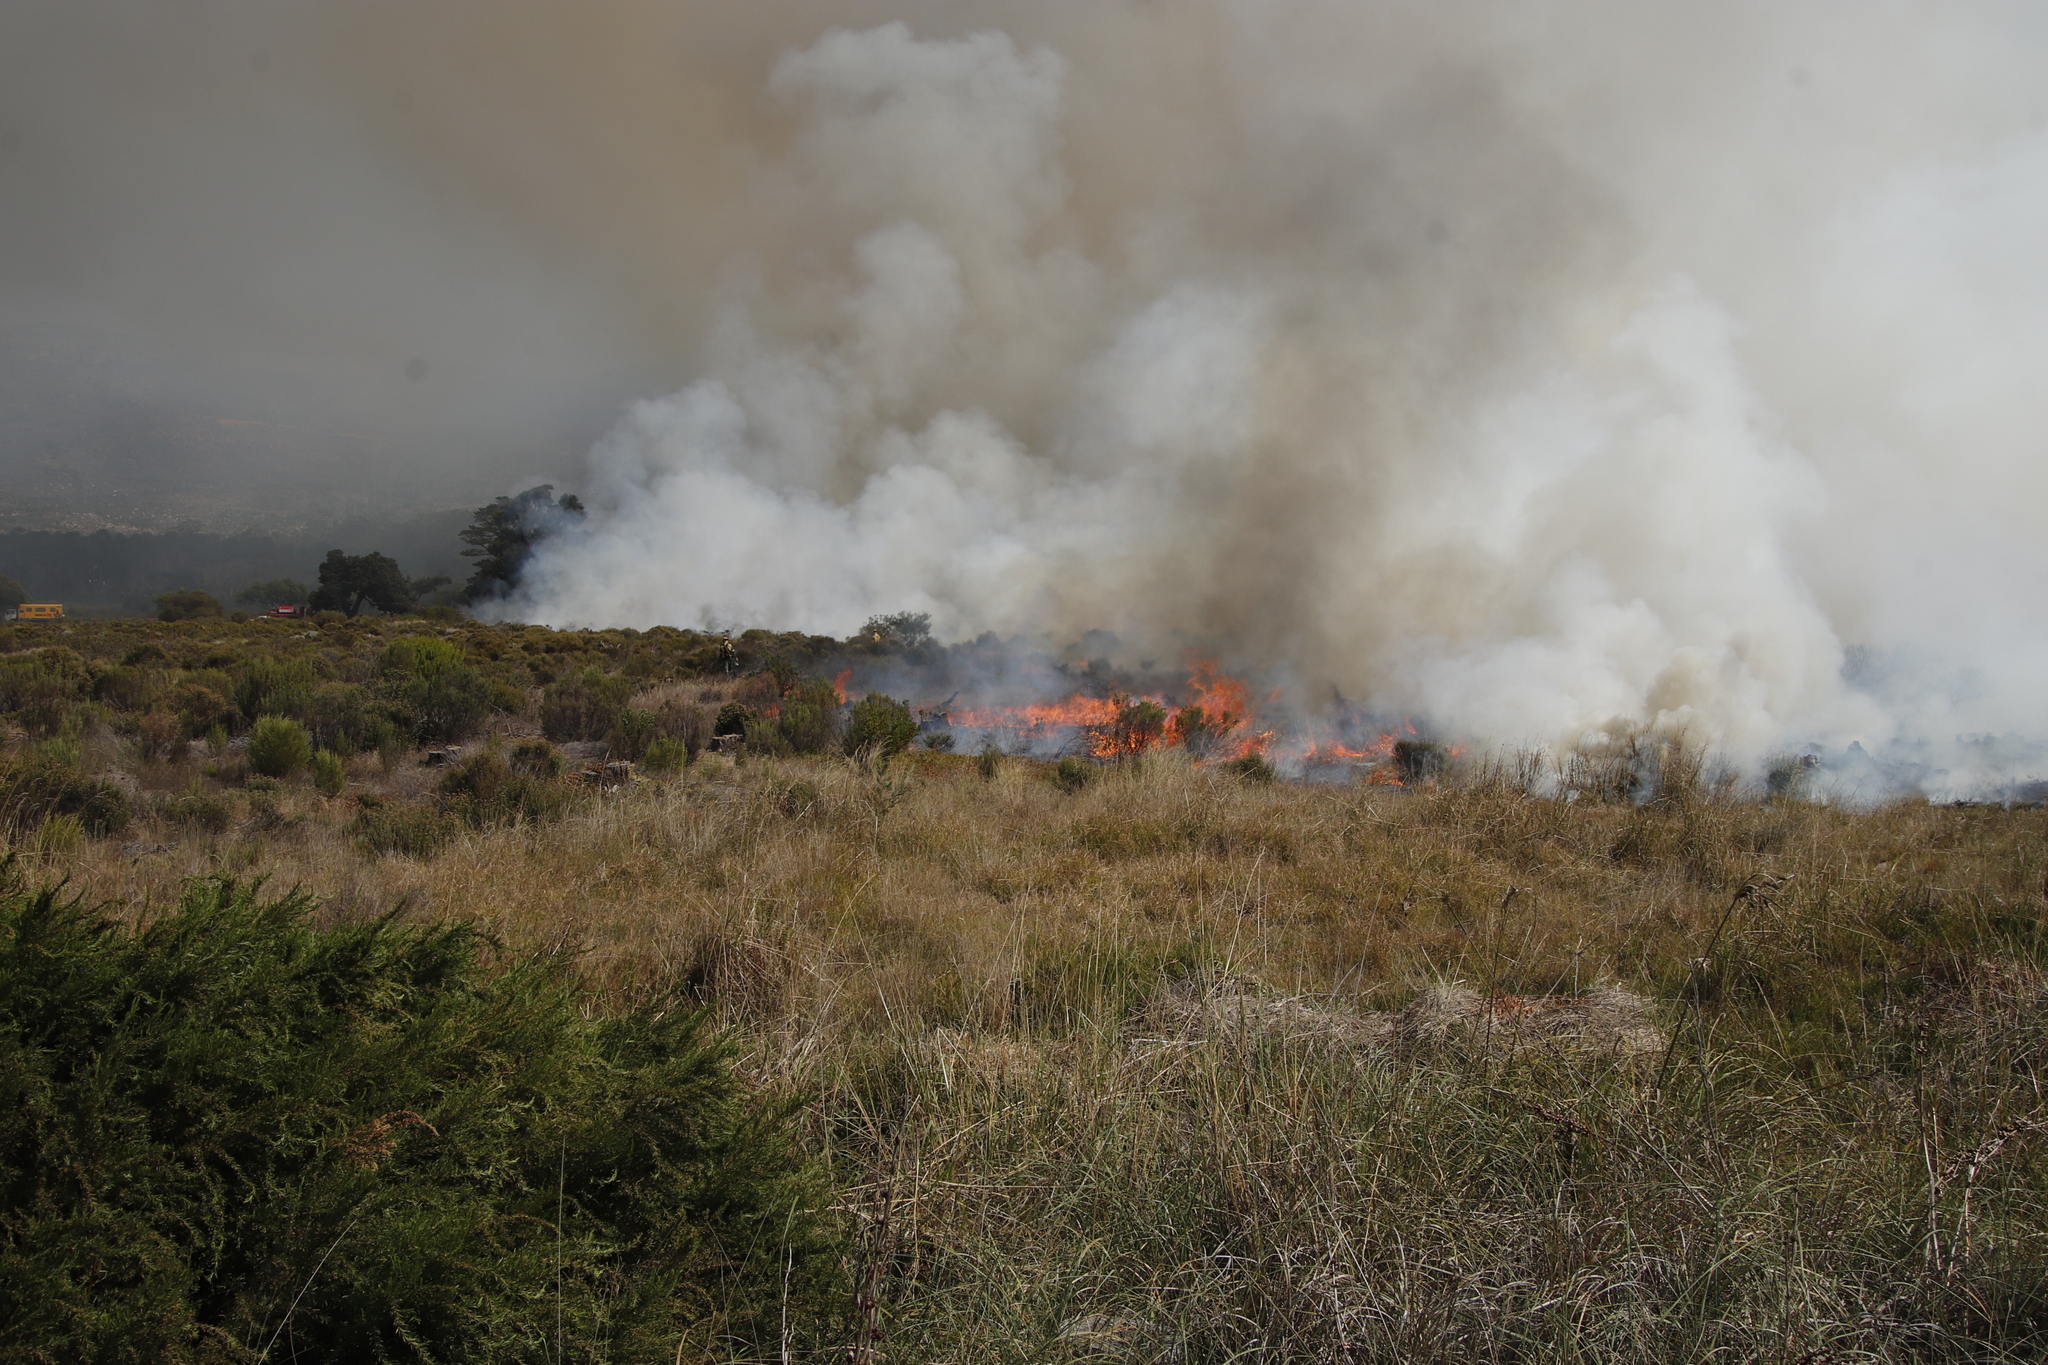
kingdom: Plantae
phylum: Tracheophyta
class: Liliopsida
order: Poales
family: Poaceae
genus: Cenchrus
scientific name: Cenchrus caudatus
